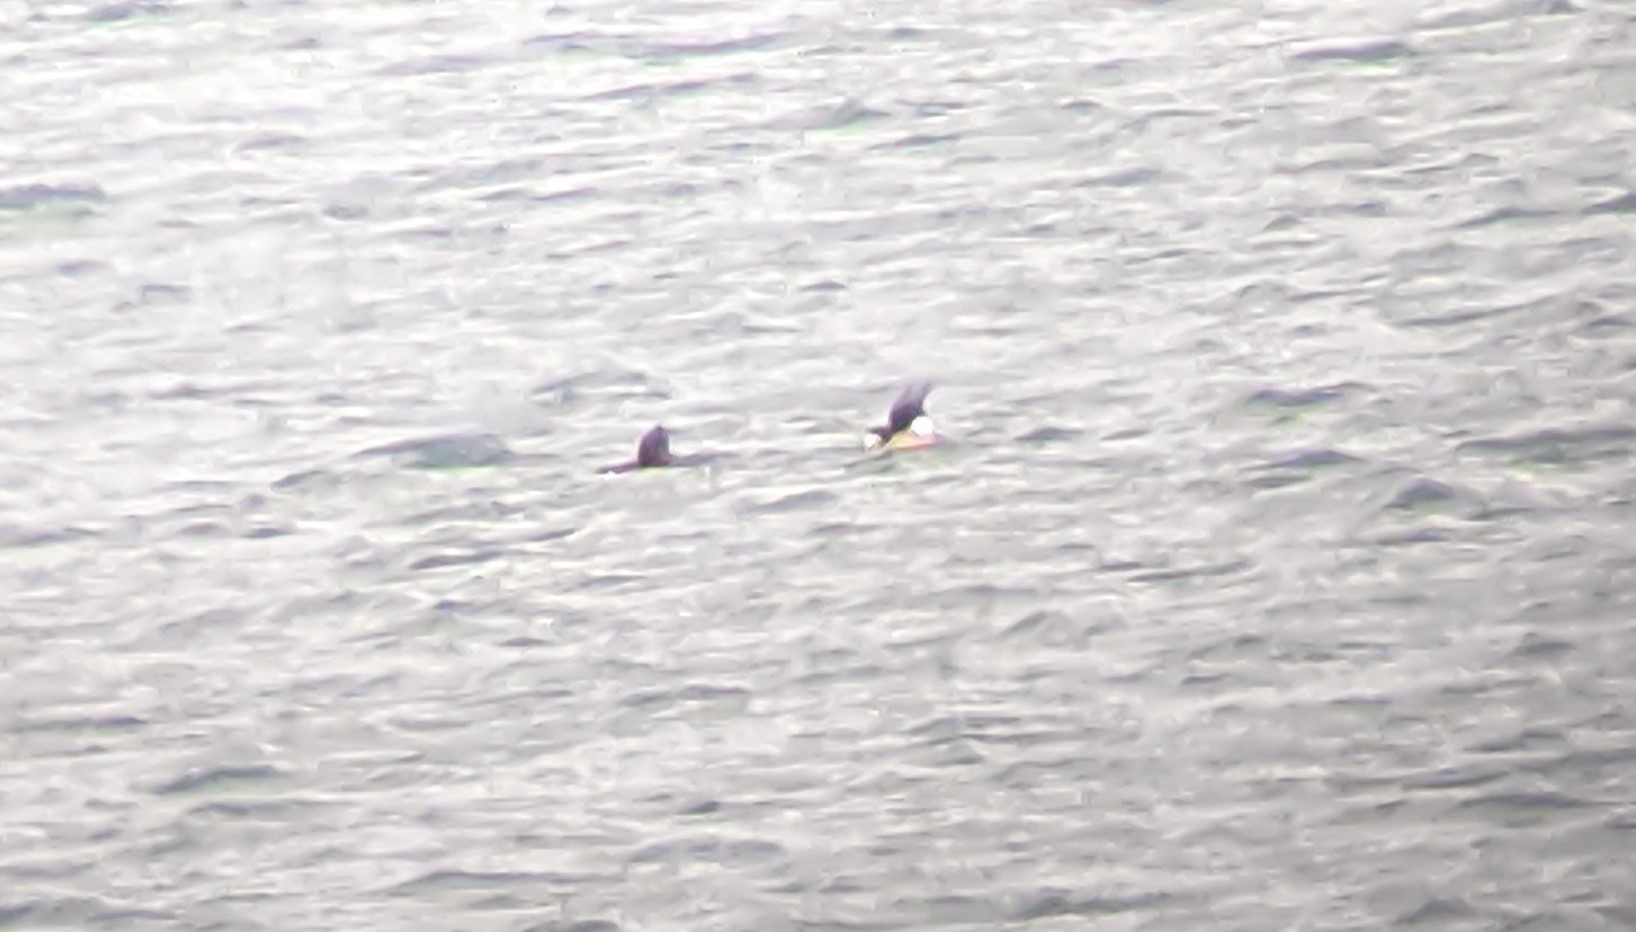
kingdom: Animalia
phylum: Chordata
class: Aves
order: Anseriformes
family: Anatidae
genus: Mergus
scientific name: Mergus serrator
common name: Red-breasted merganser
